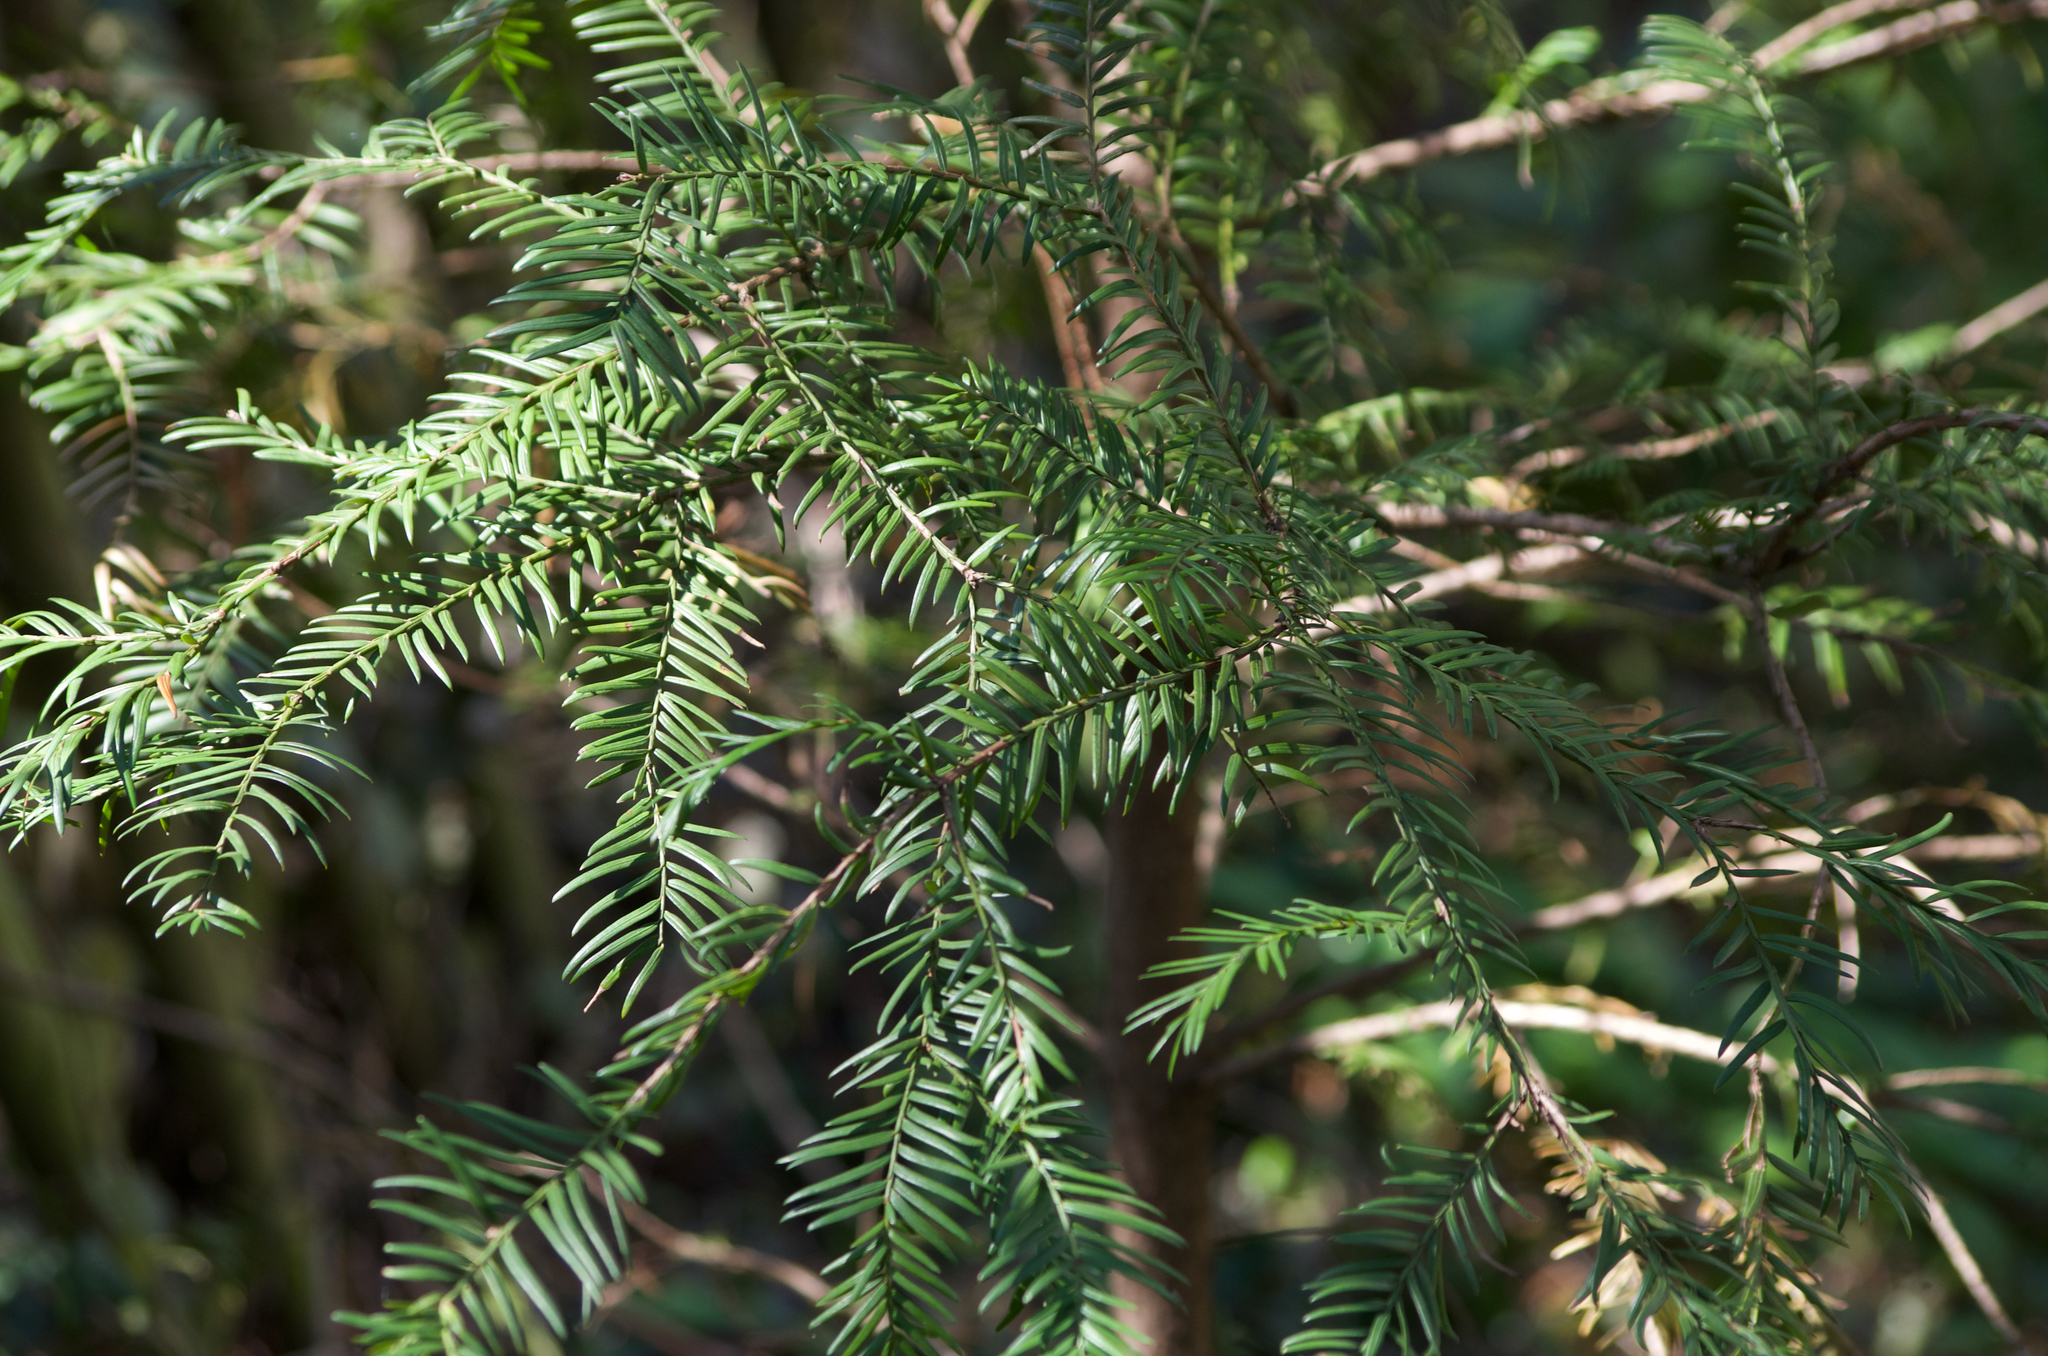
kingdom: Plantae
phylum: Tracheophyta
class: Pinopsida
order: Pinales
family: Taxaceae
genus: Taxus
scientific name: Taxus baccata
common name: Yew
